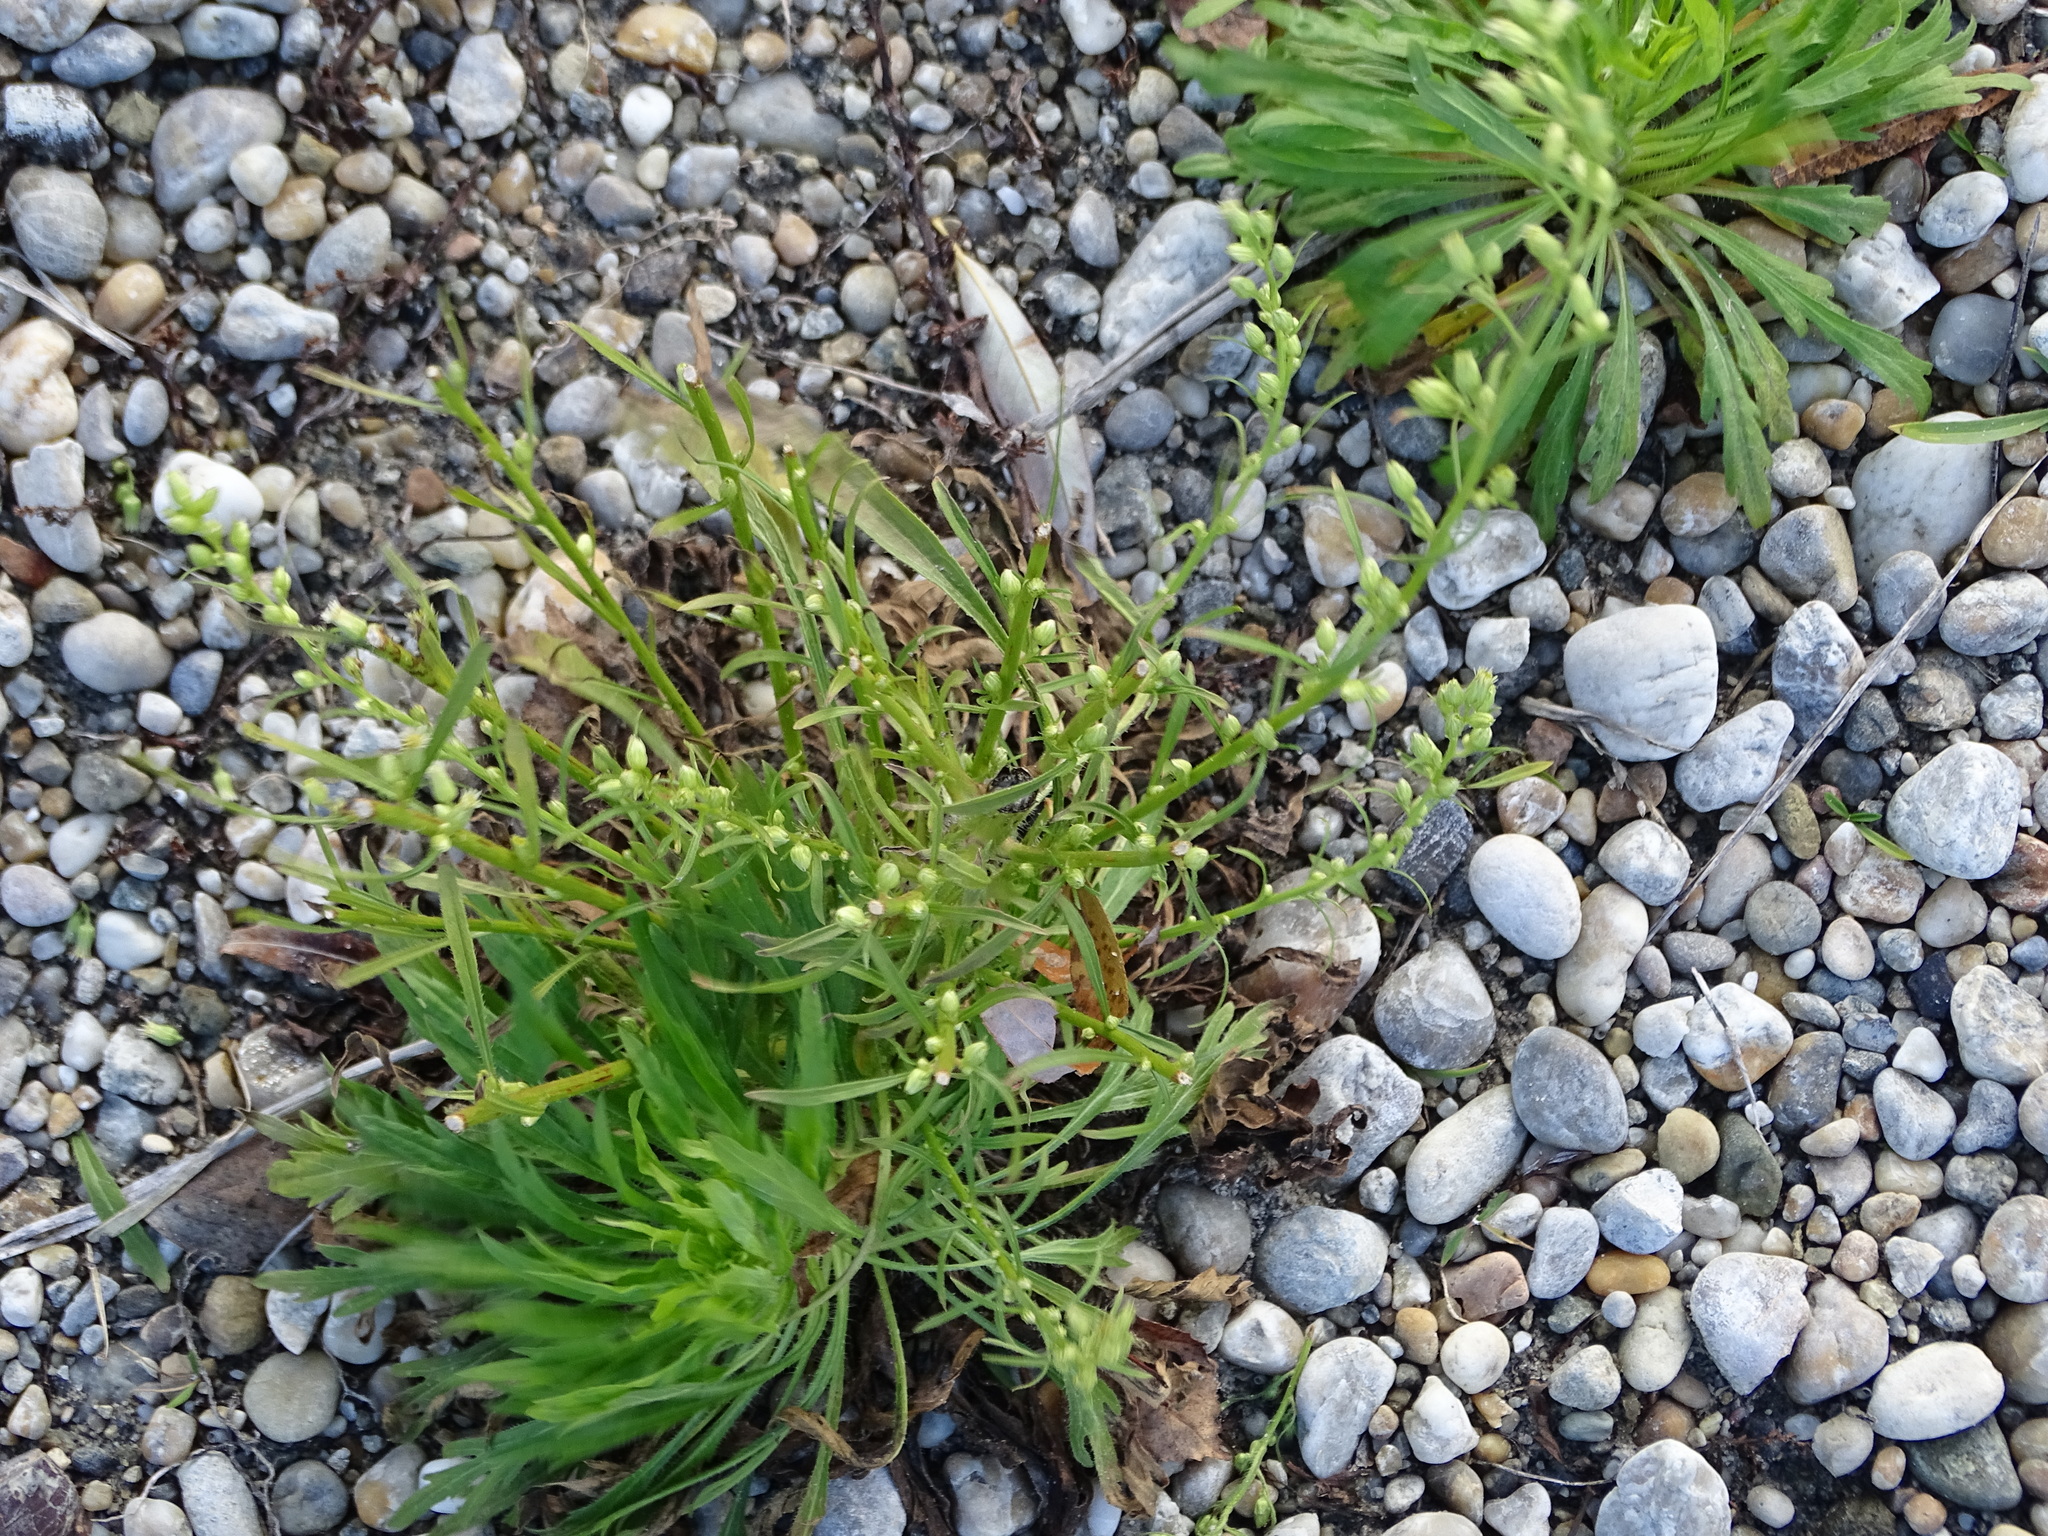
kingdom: Plantae
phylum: Tracheophyta
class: Magnoliopsida
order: Asterales
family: Asteraceae
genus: Erigeron
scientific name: Erigeron canadensis
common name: Canadian fleabane
